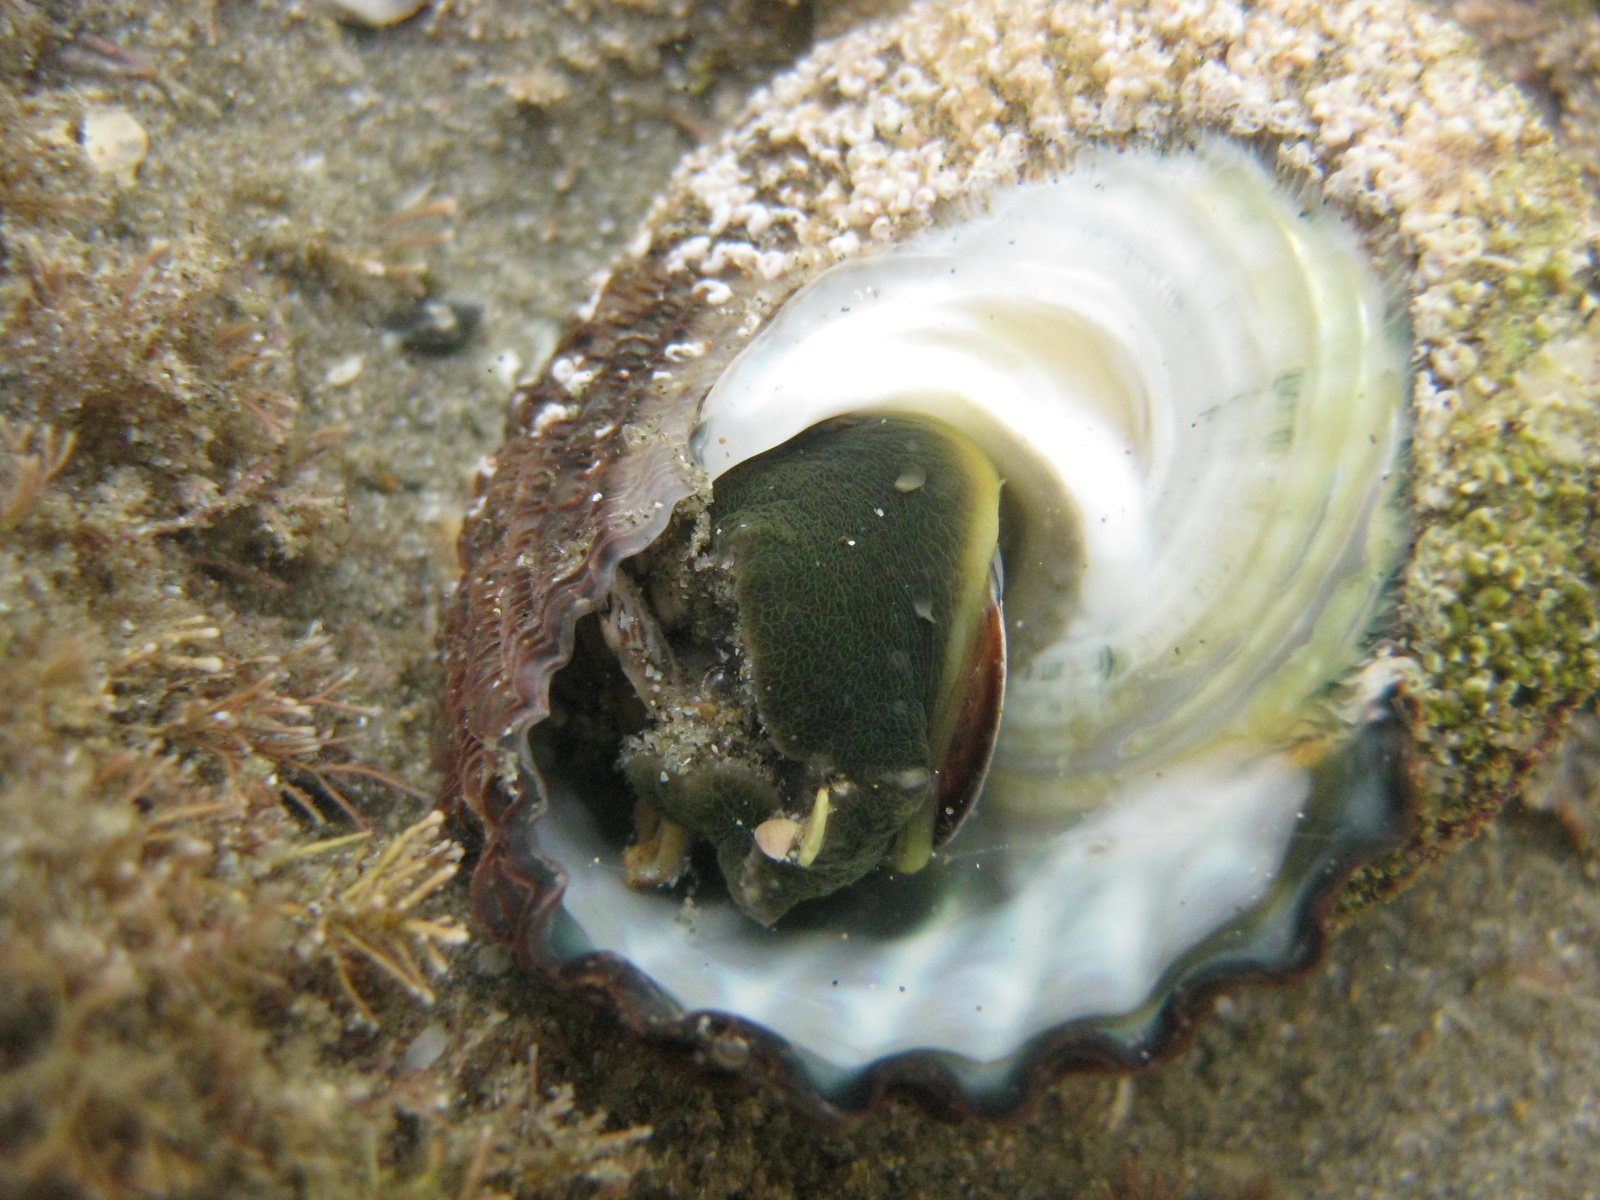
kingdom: Animalia
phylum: Mollusca
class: Gastropoda
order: Trochida
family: Turbinidae
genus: Cookia
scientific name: Cookia sulcata
